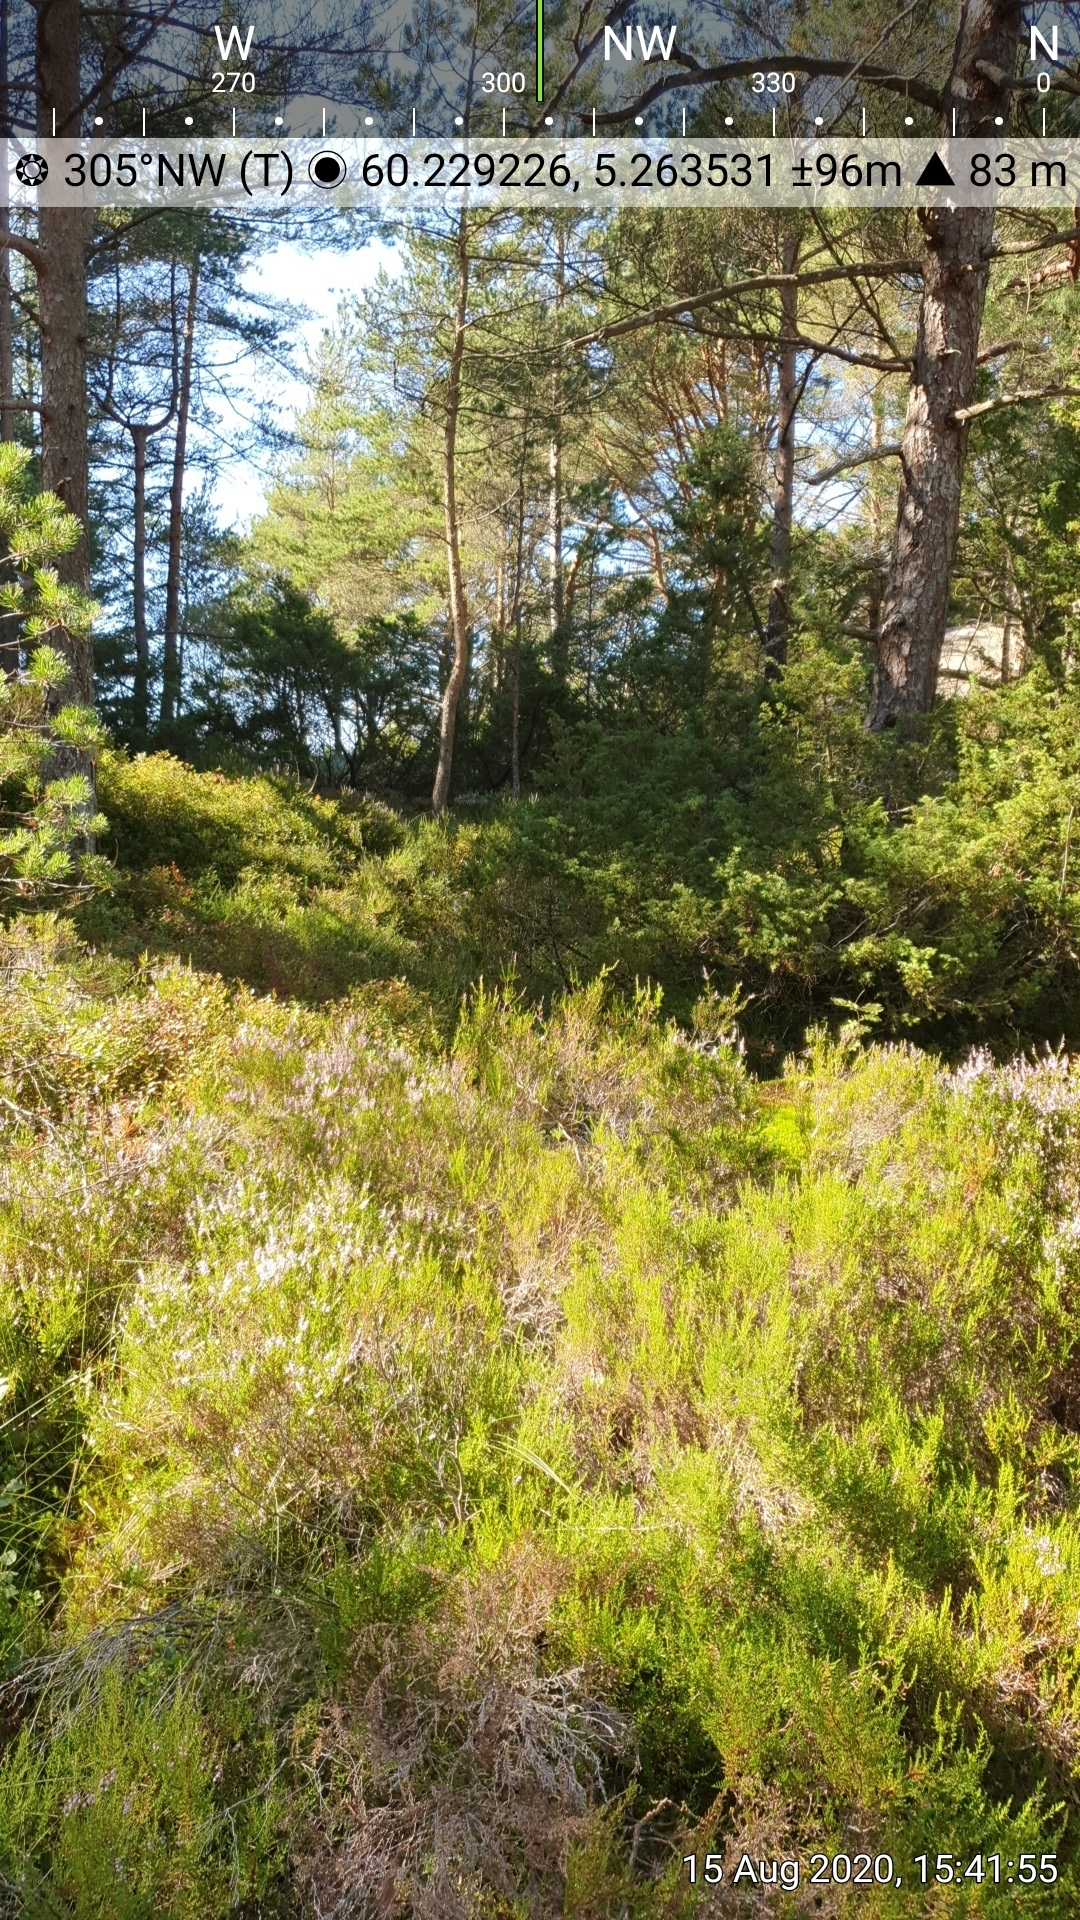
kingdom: Animalia
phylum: Arthropoda
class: Insecta
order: Lepidoptera
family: Pieridae
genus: Pieris
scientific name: Pieris napi
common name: Green-veined white
